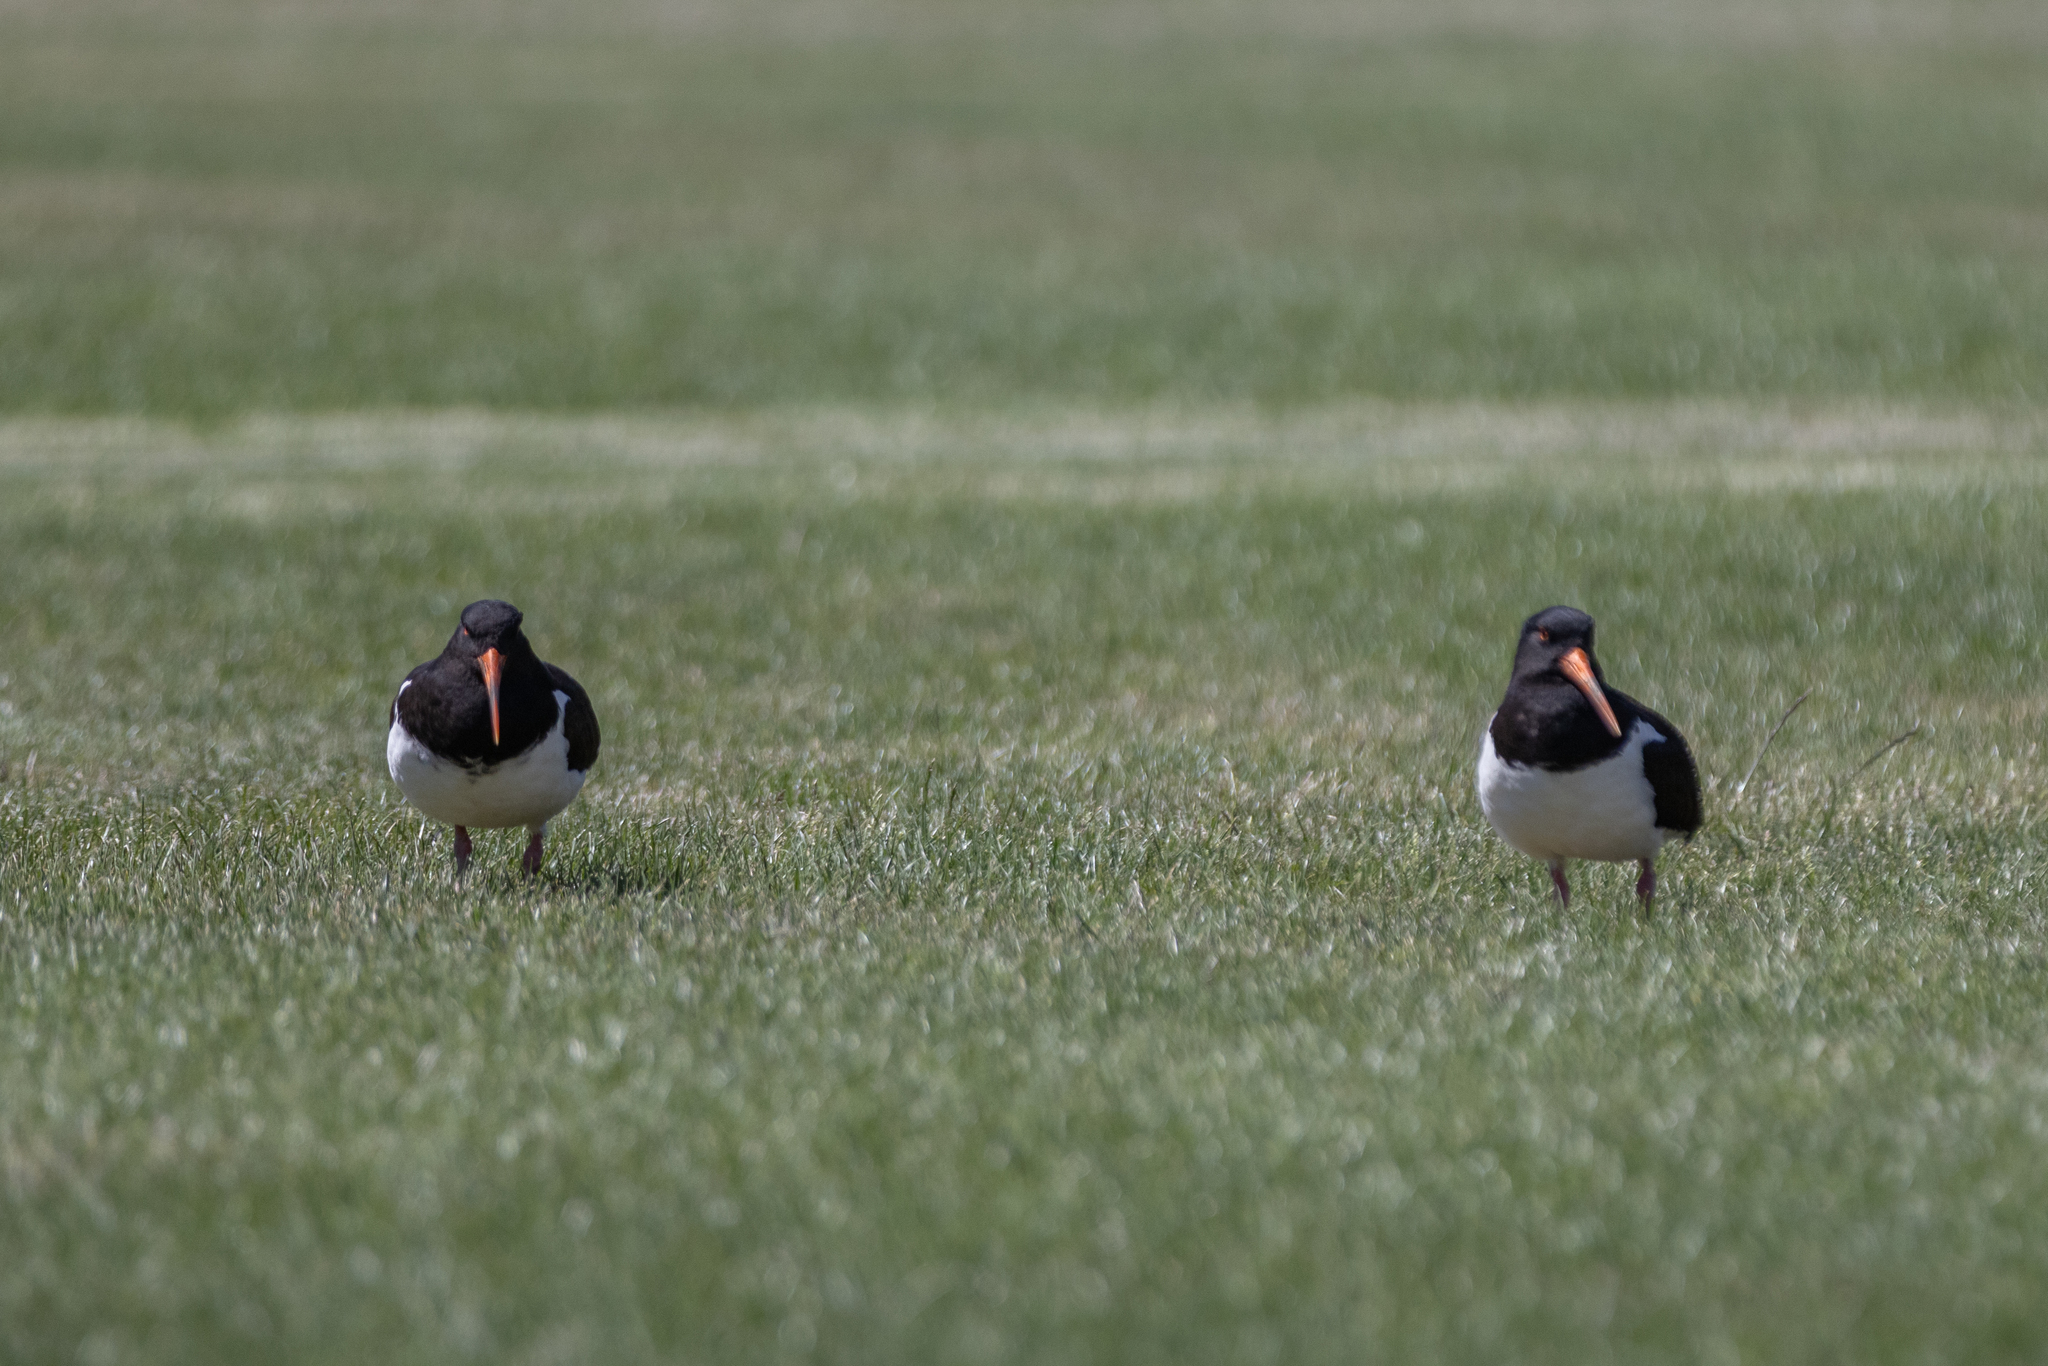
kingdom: Animalia
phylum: Chordata
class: Aves
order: Charadriiformes
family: Haematopodidae
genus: Haematopus
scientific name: Haematopus finschi
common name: South island oystercatcher
